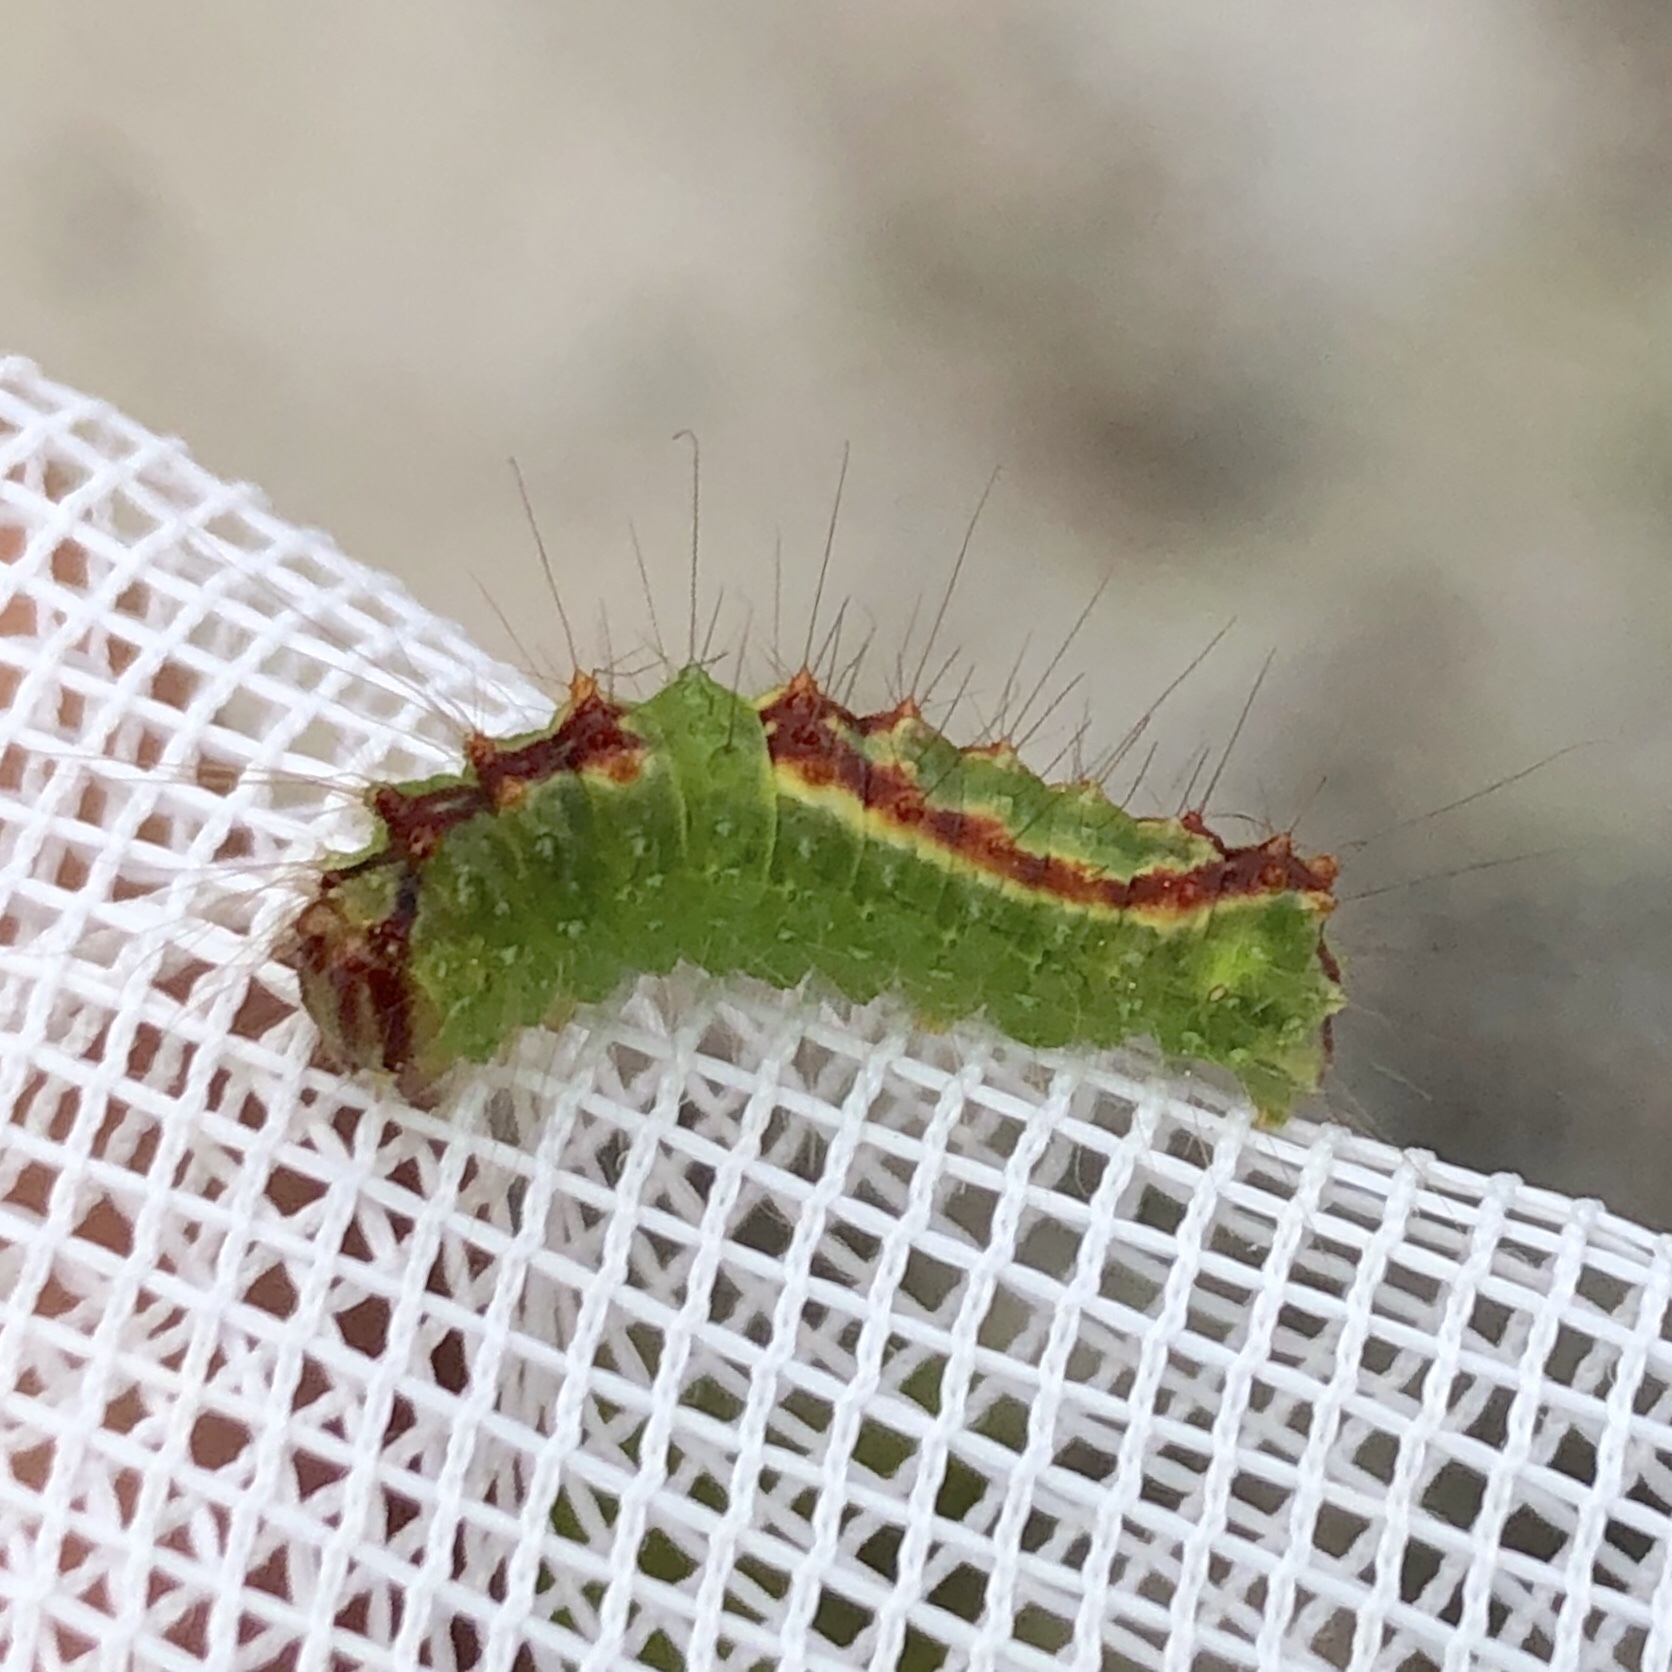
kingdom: Animalia
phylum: Arthropoda
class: Insecta
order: Lepidoptera
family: Noctuidae
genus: Acronicta
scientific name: Acronicta tritona
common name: Triton dagger
